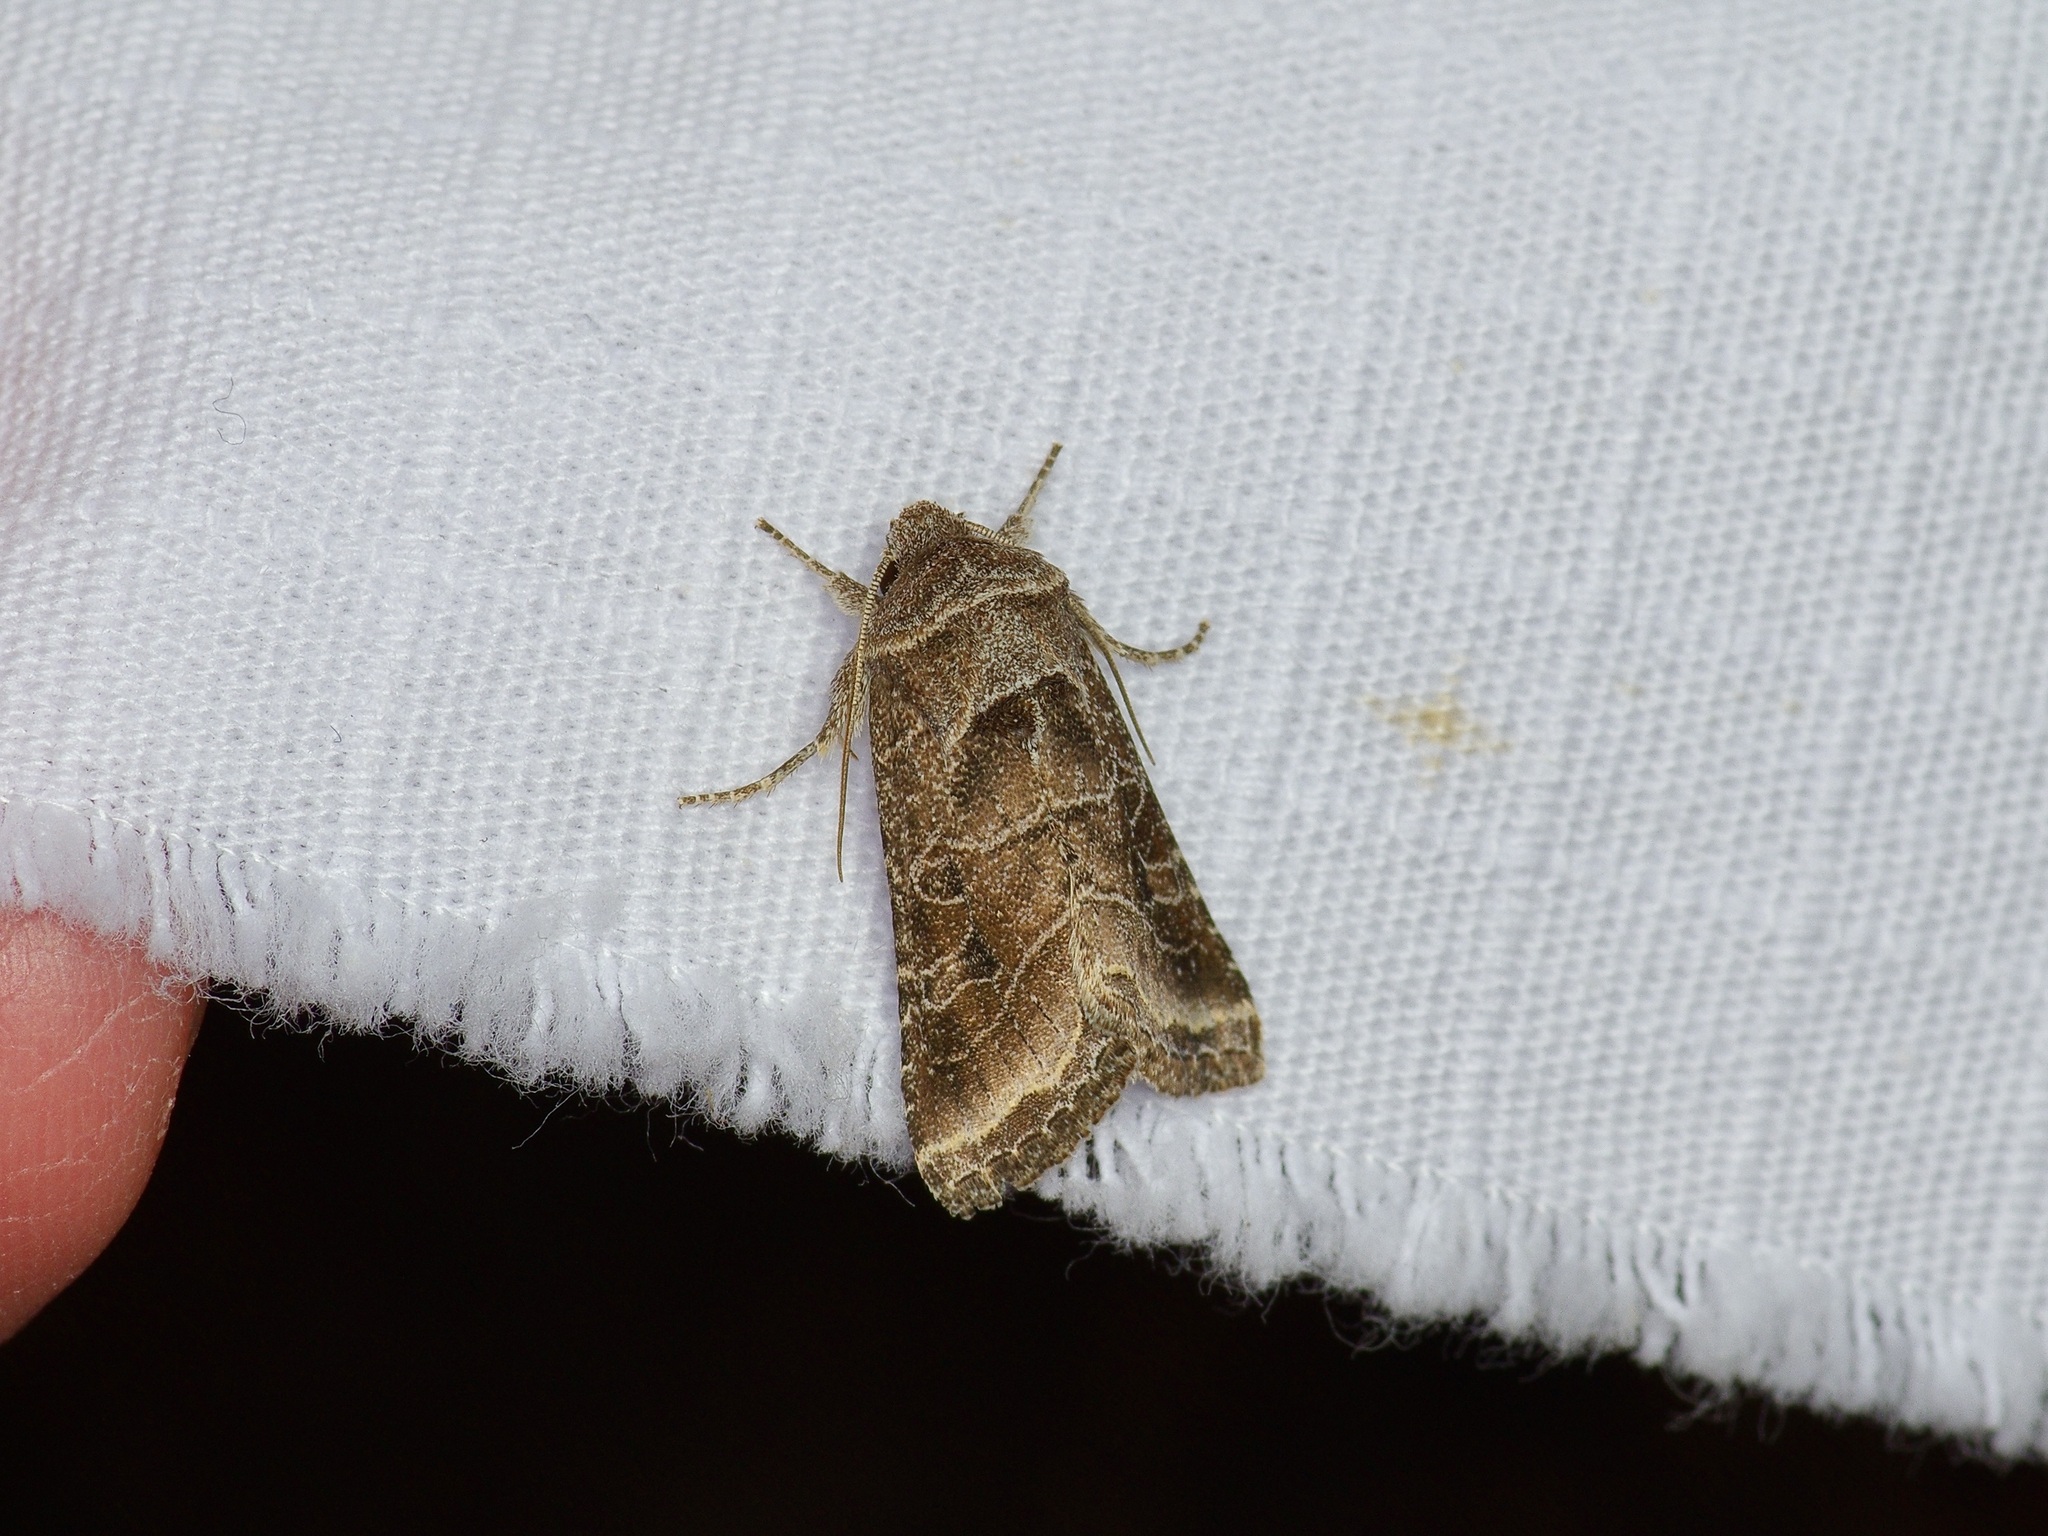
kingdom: Animalia
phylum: Arthropoda
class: Insecta
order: Lepidoptera
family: Noctuidae
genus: Lacinipolia
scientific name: Lacinipolia erecta
